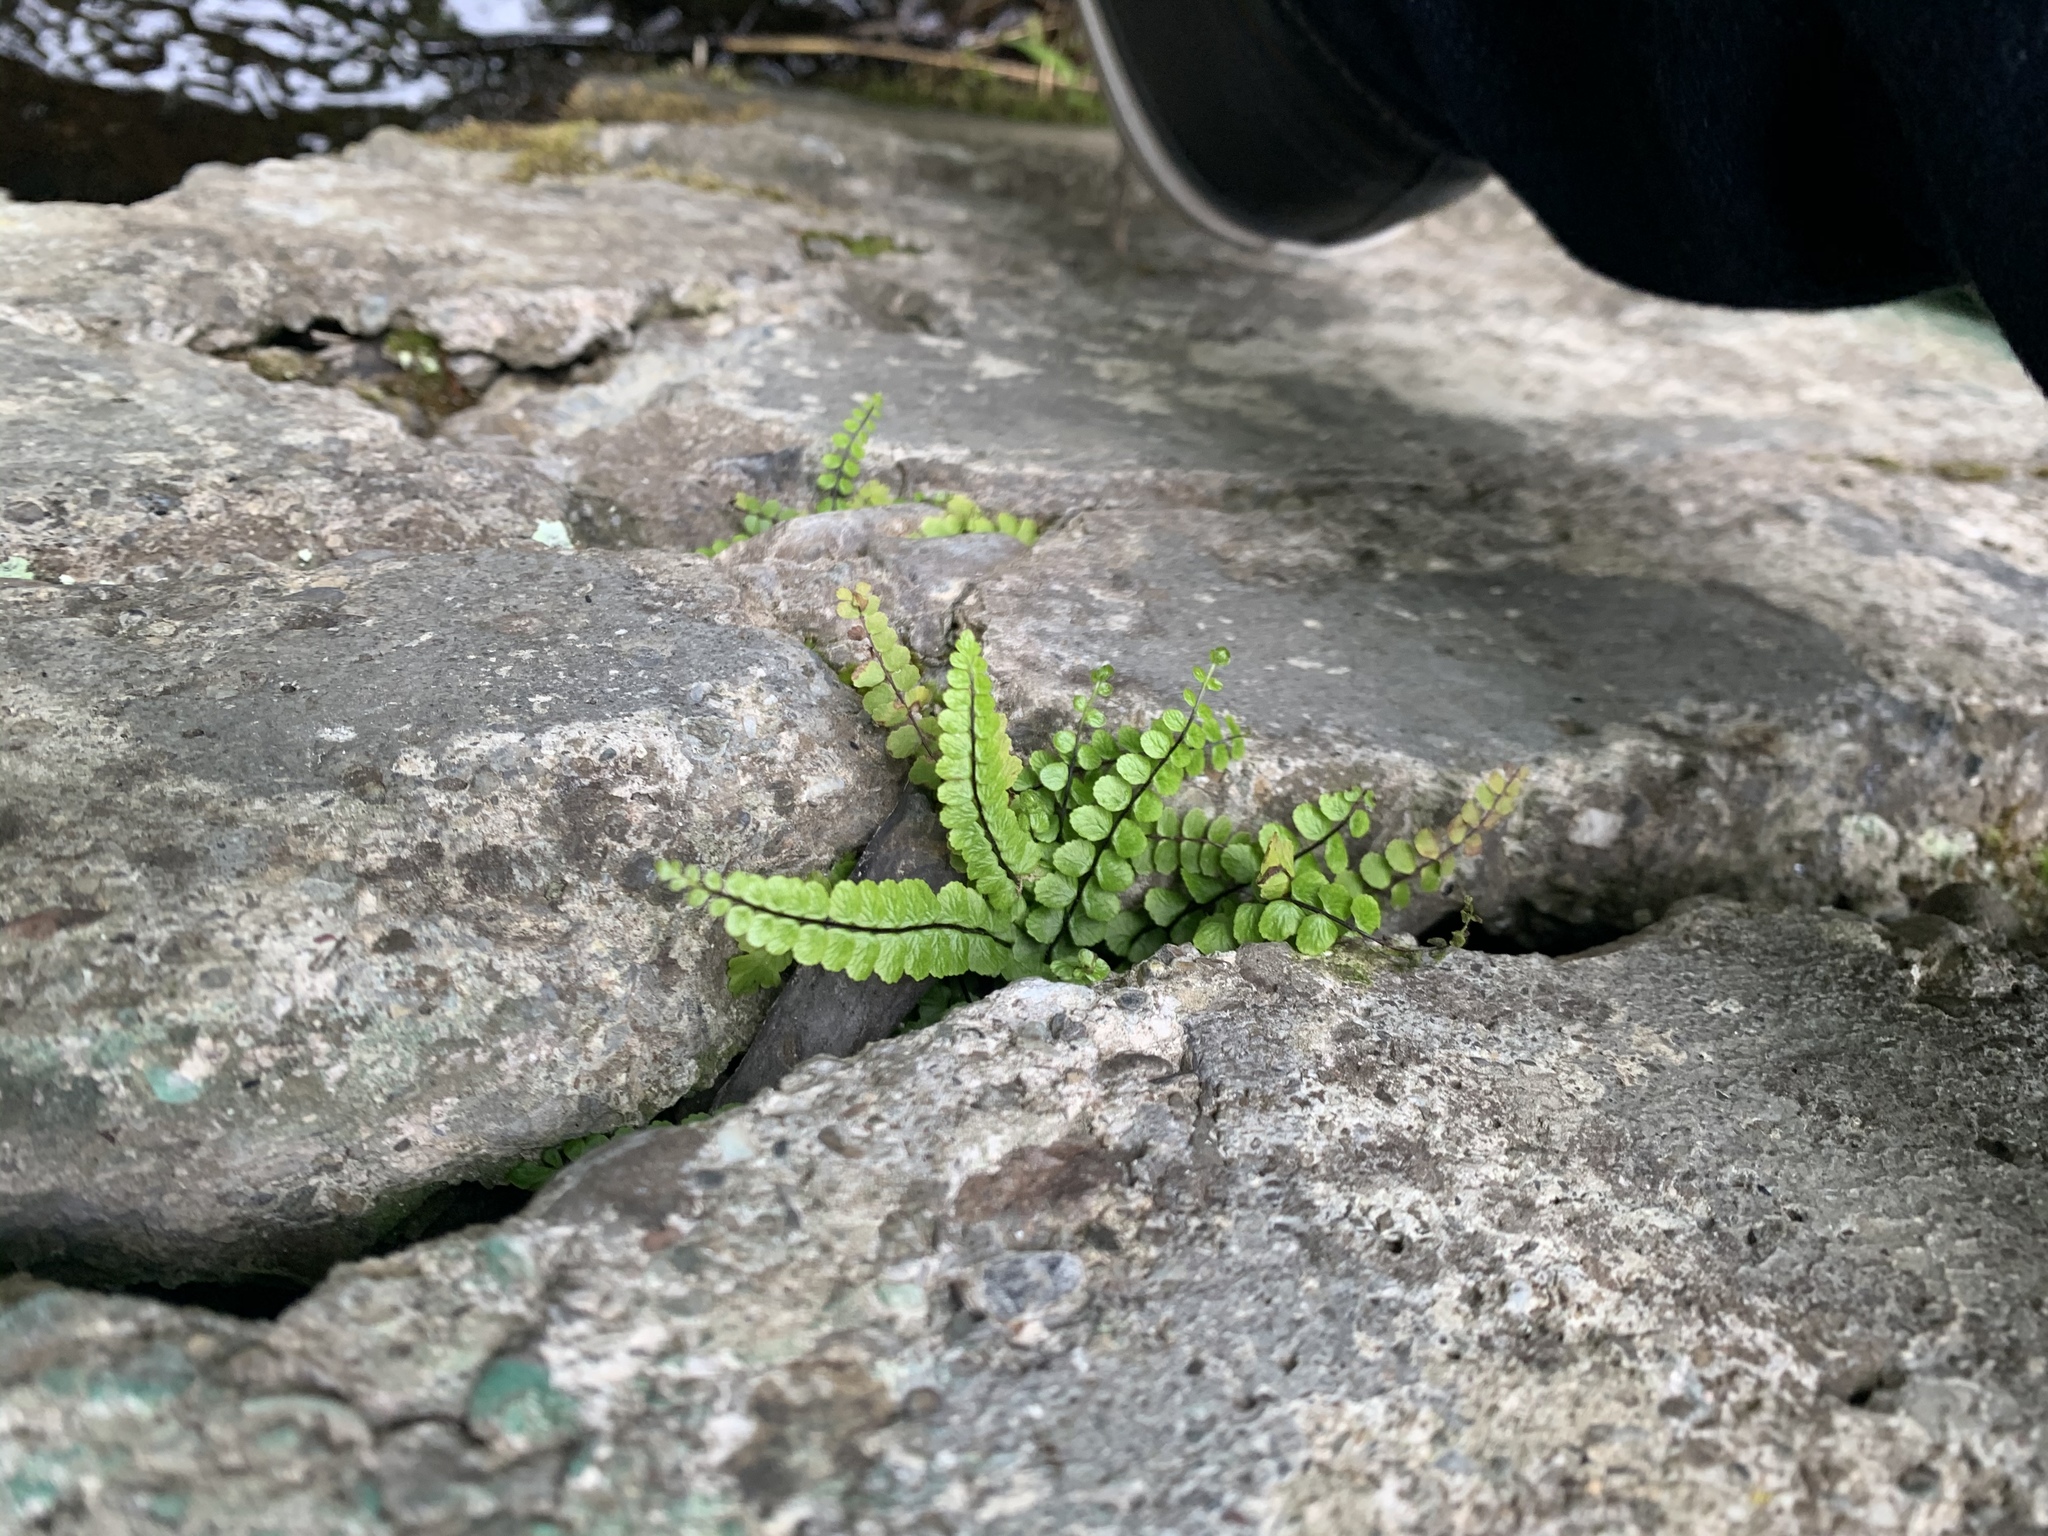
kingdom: Plantae
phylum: Tracheophyta
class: Polypodiopsida
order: Polypodiales
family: Aspleniaceae
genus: Asplenium
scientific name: Asplenium trichomanes
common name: Maidenhair spleenwort
